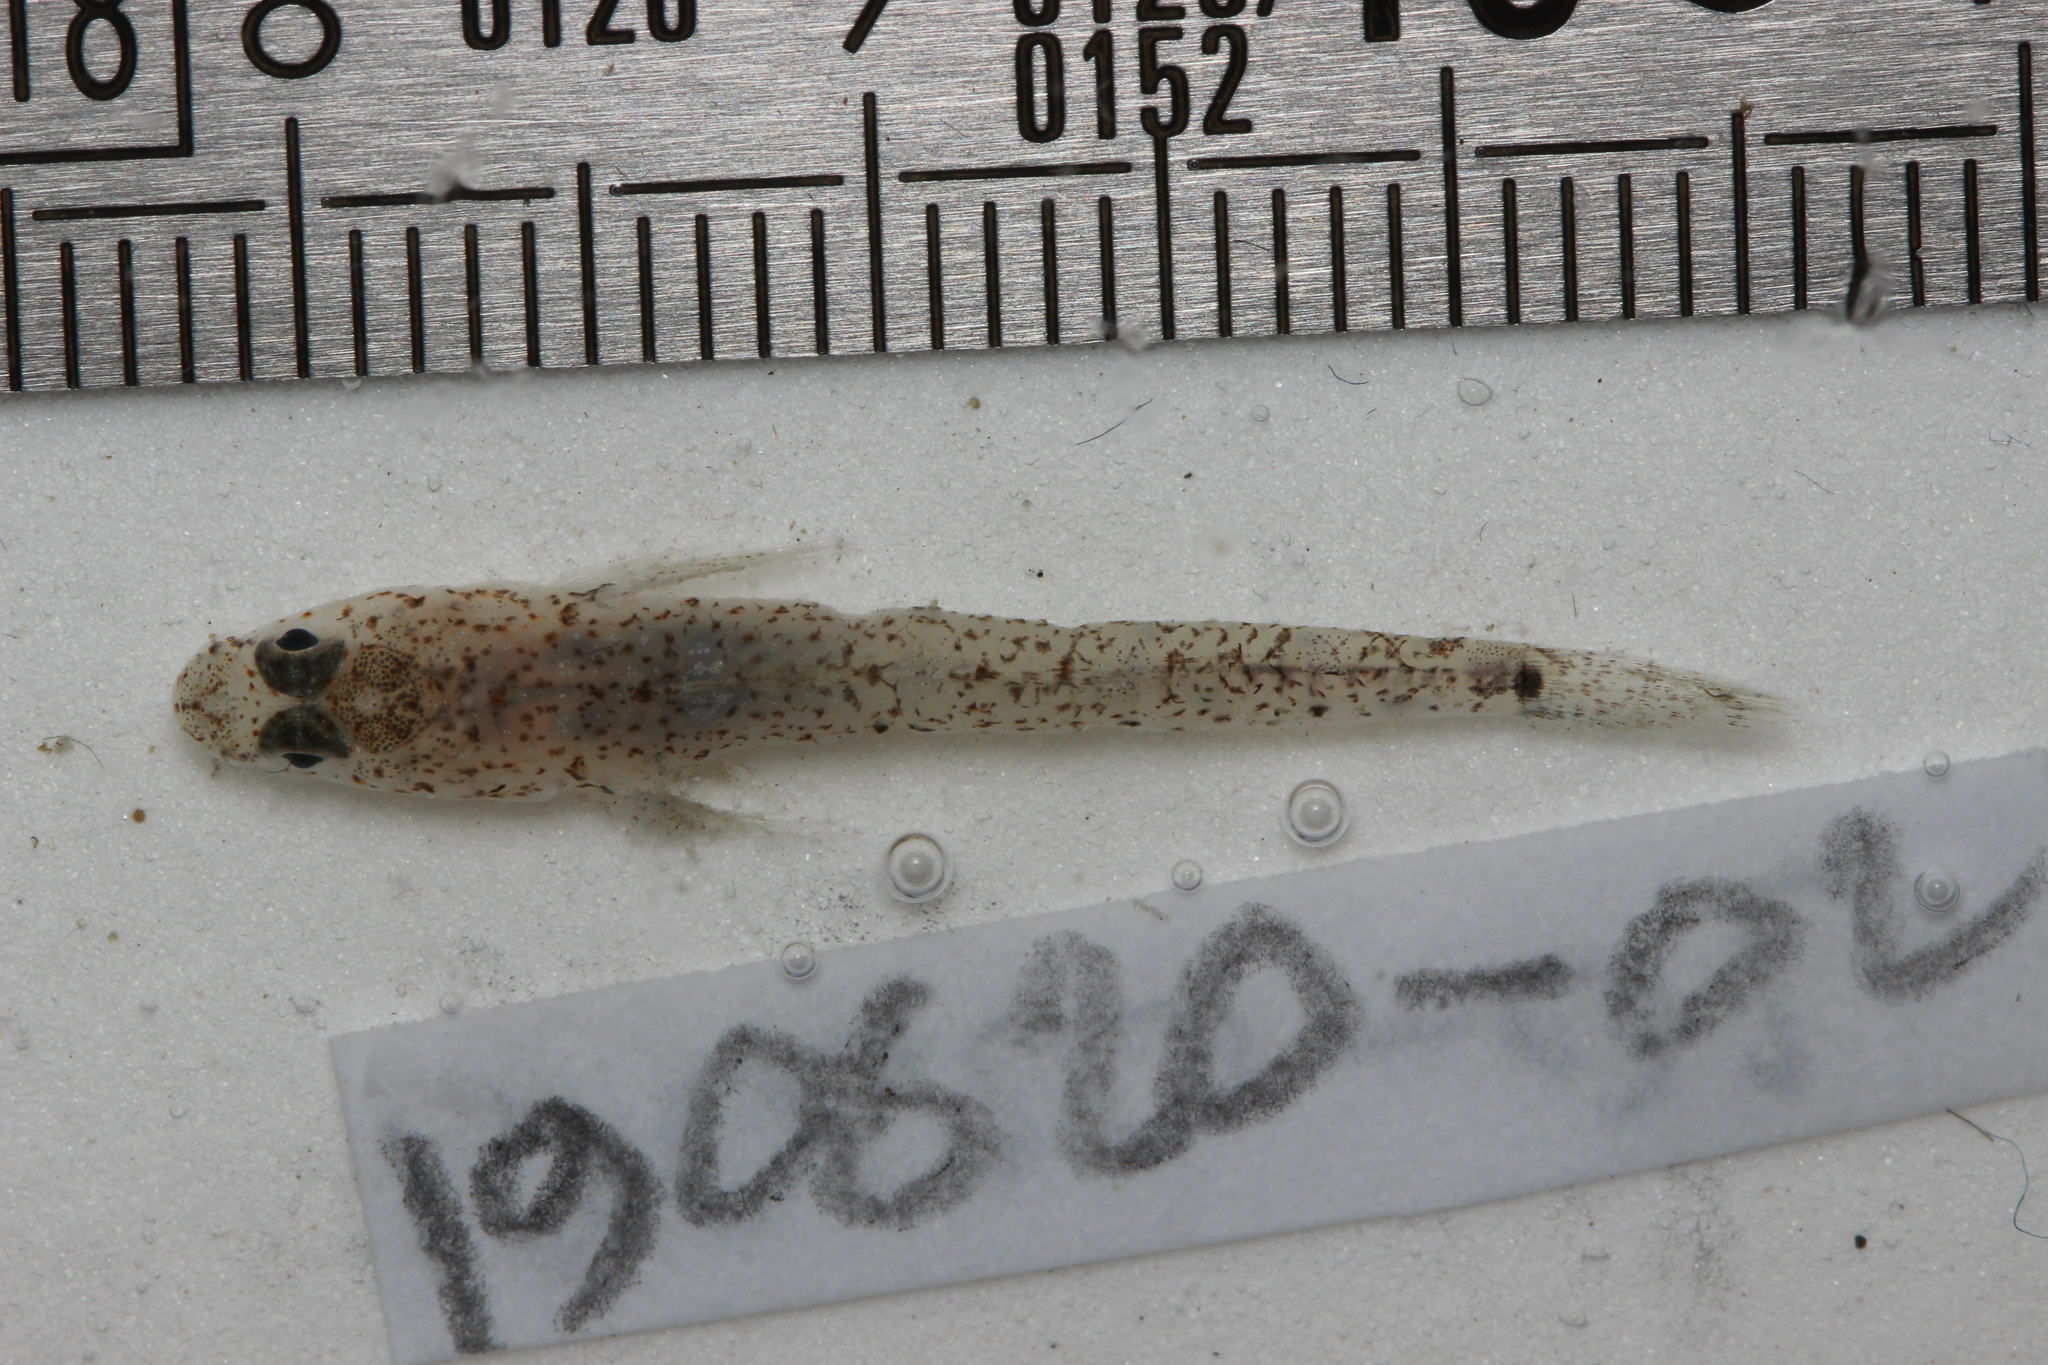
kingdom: Animalia
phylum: Chordata
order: Perciformes
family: Gobiidae
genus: Pomatoschistus
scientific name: Pomatoschistus marmoratus
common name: Marbled goby
